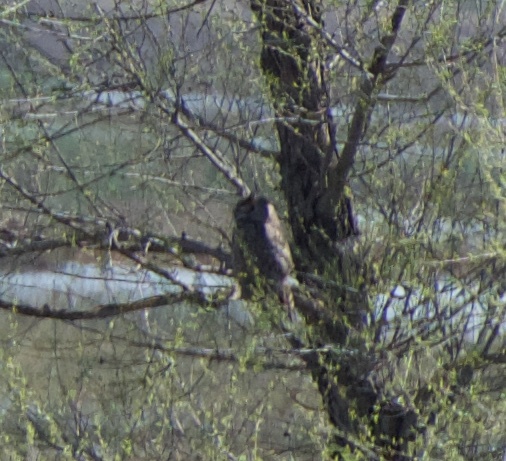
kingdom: Animalia
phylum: Chordata
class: Aves
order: Strigiformes
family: Strigidae
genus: Bubo
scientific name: Bubo virginianus
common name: Great horned owl
